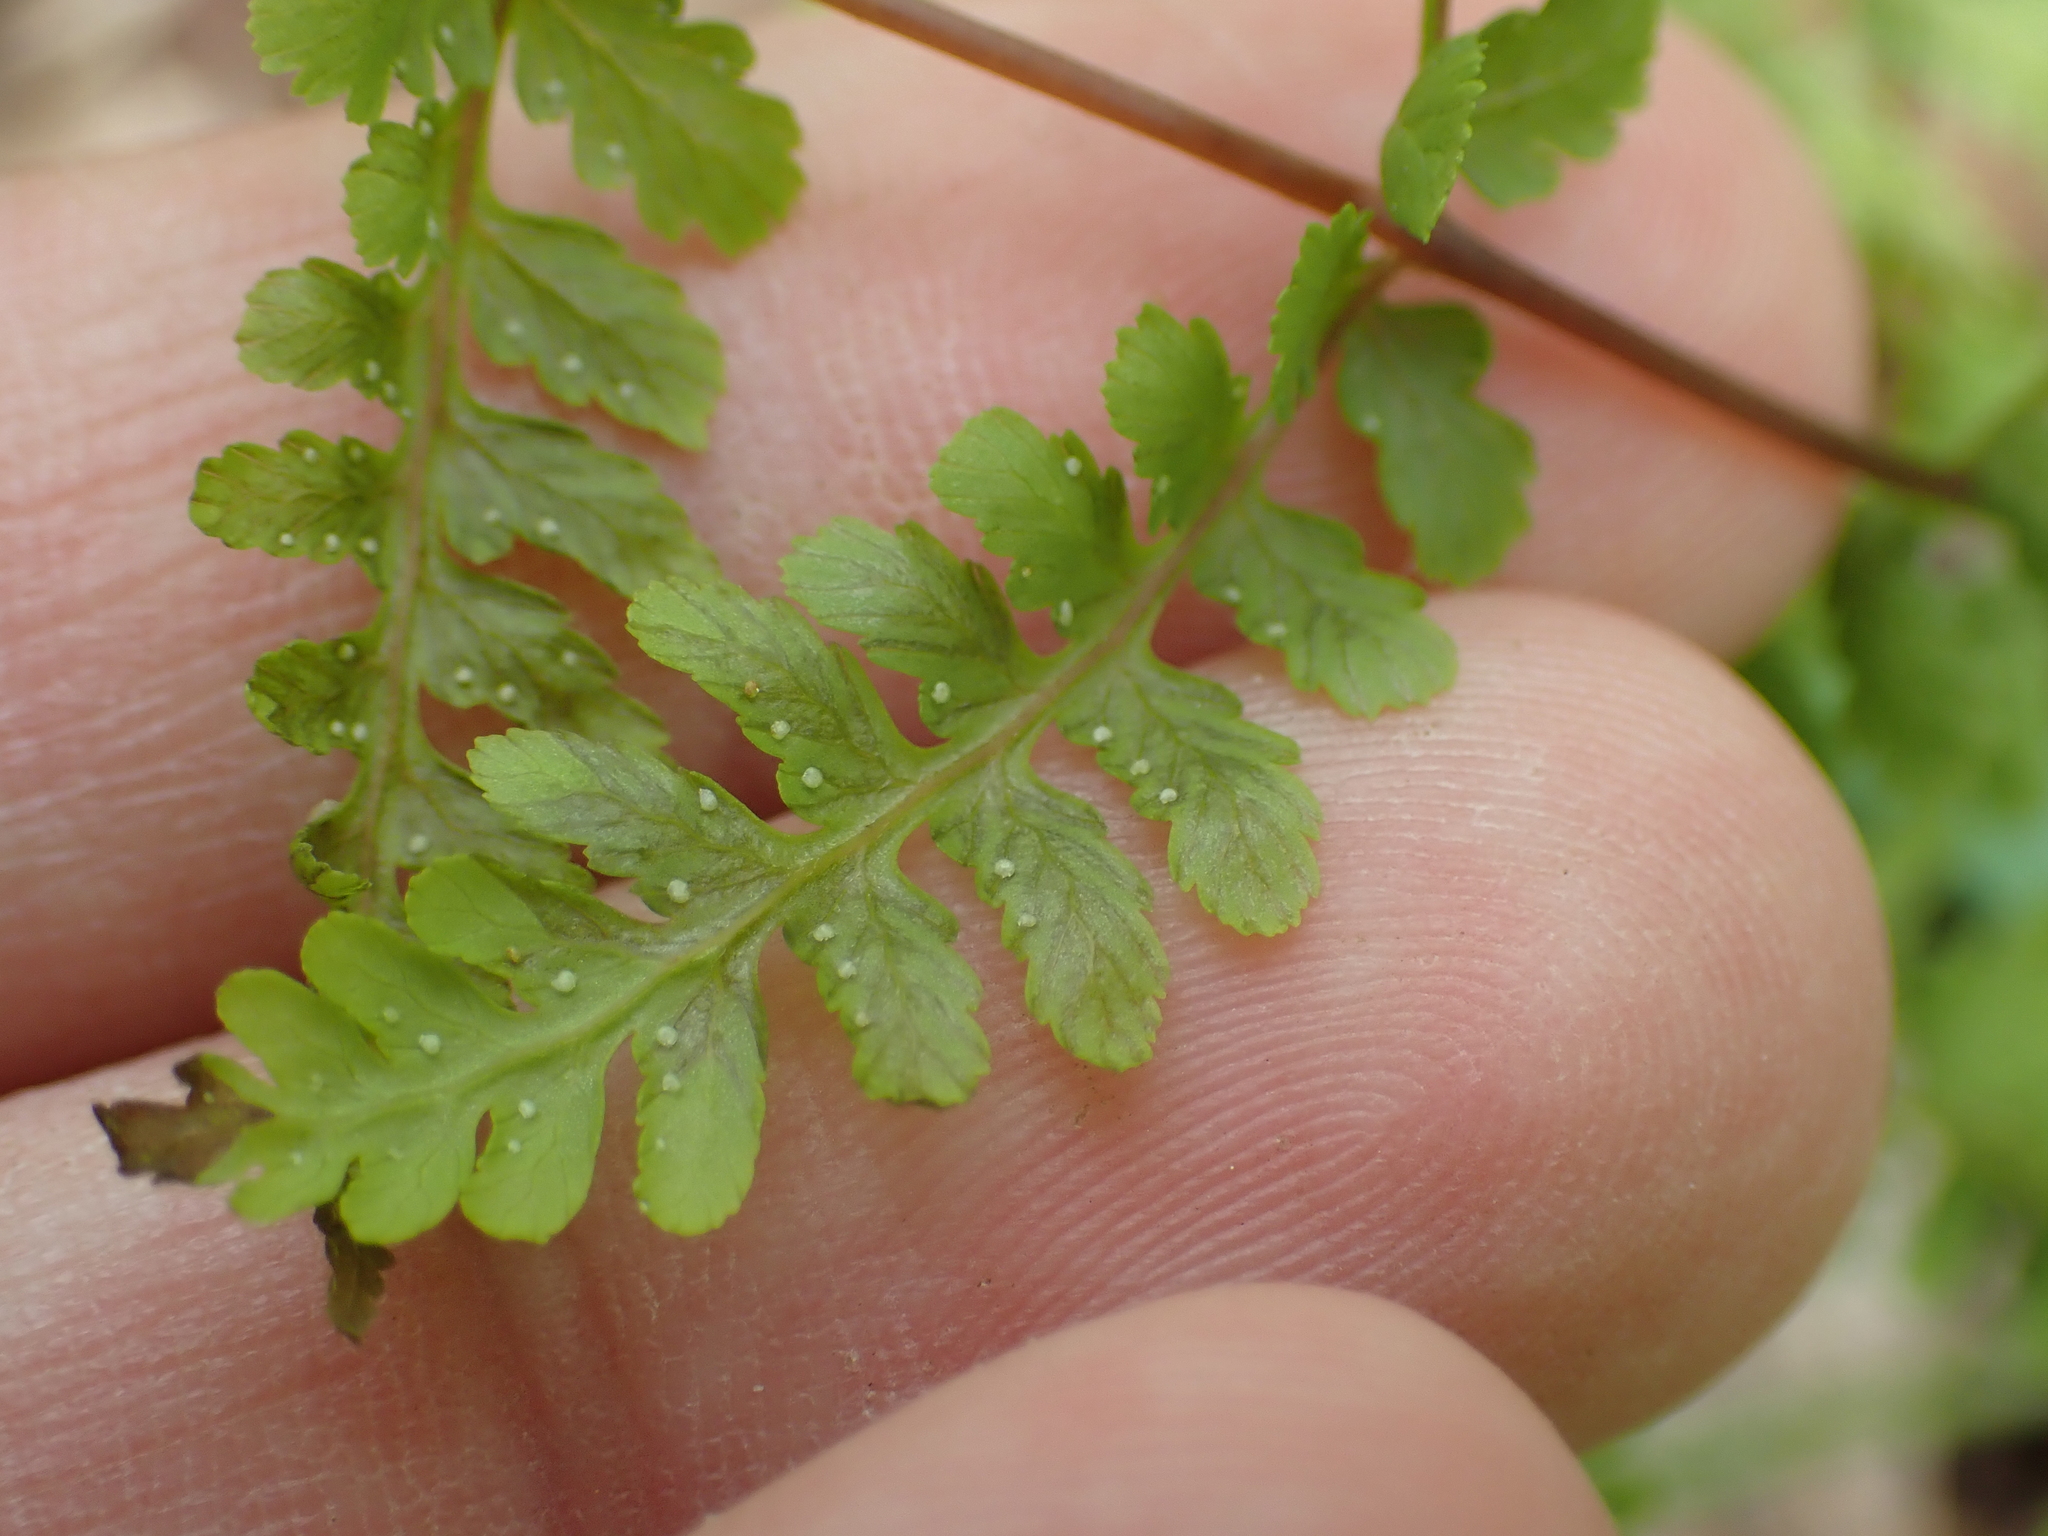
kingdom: Plantae
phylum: Tracheophyta
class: Polypodiopsida
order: Polypodiales
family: Athyriaceae
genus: Athyrium
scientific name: Athyrium asplenioides
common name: Southern lady fern
